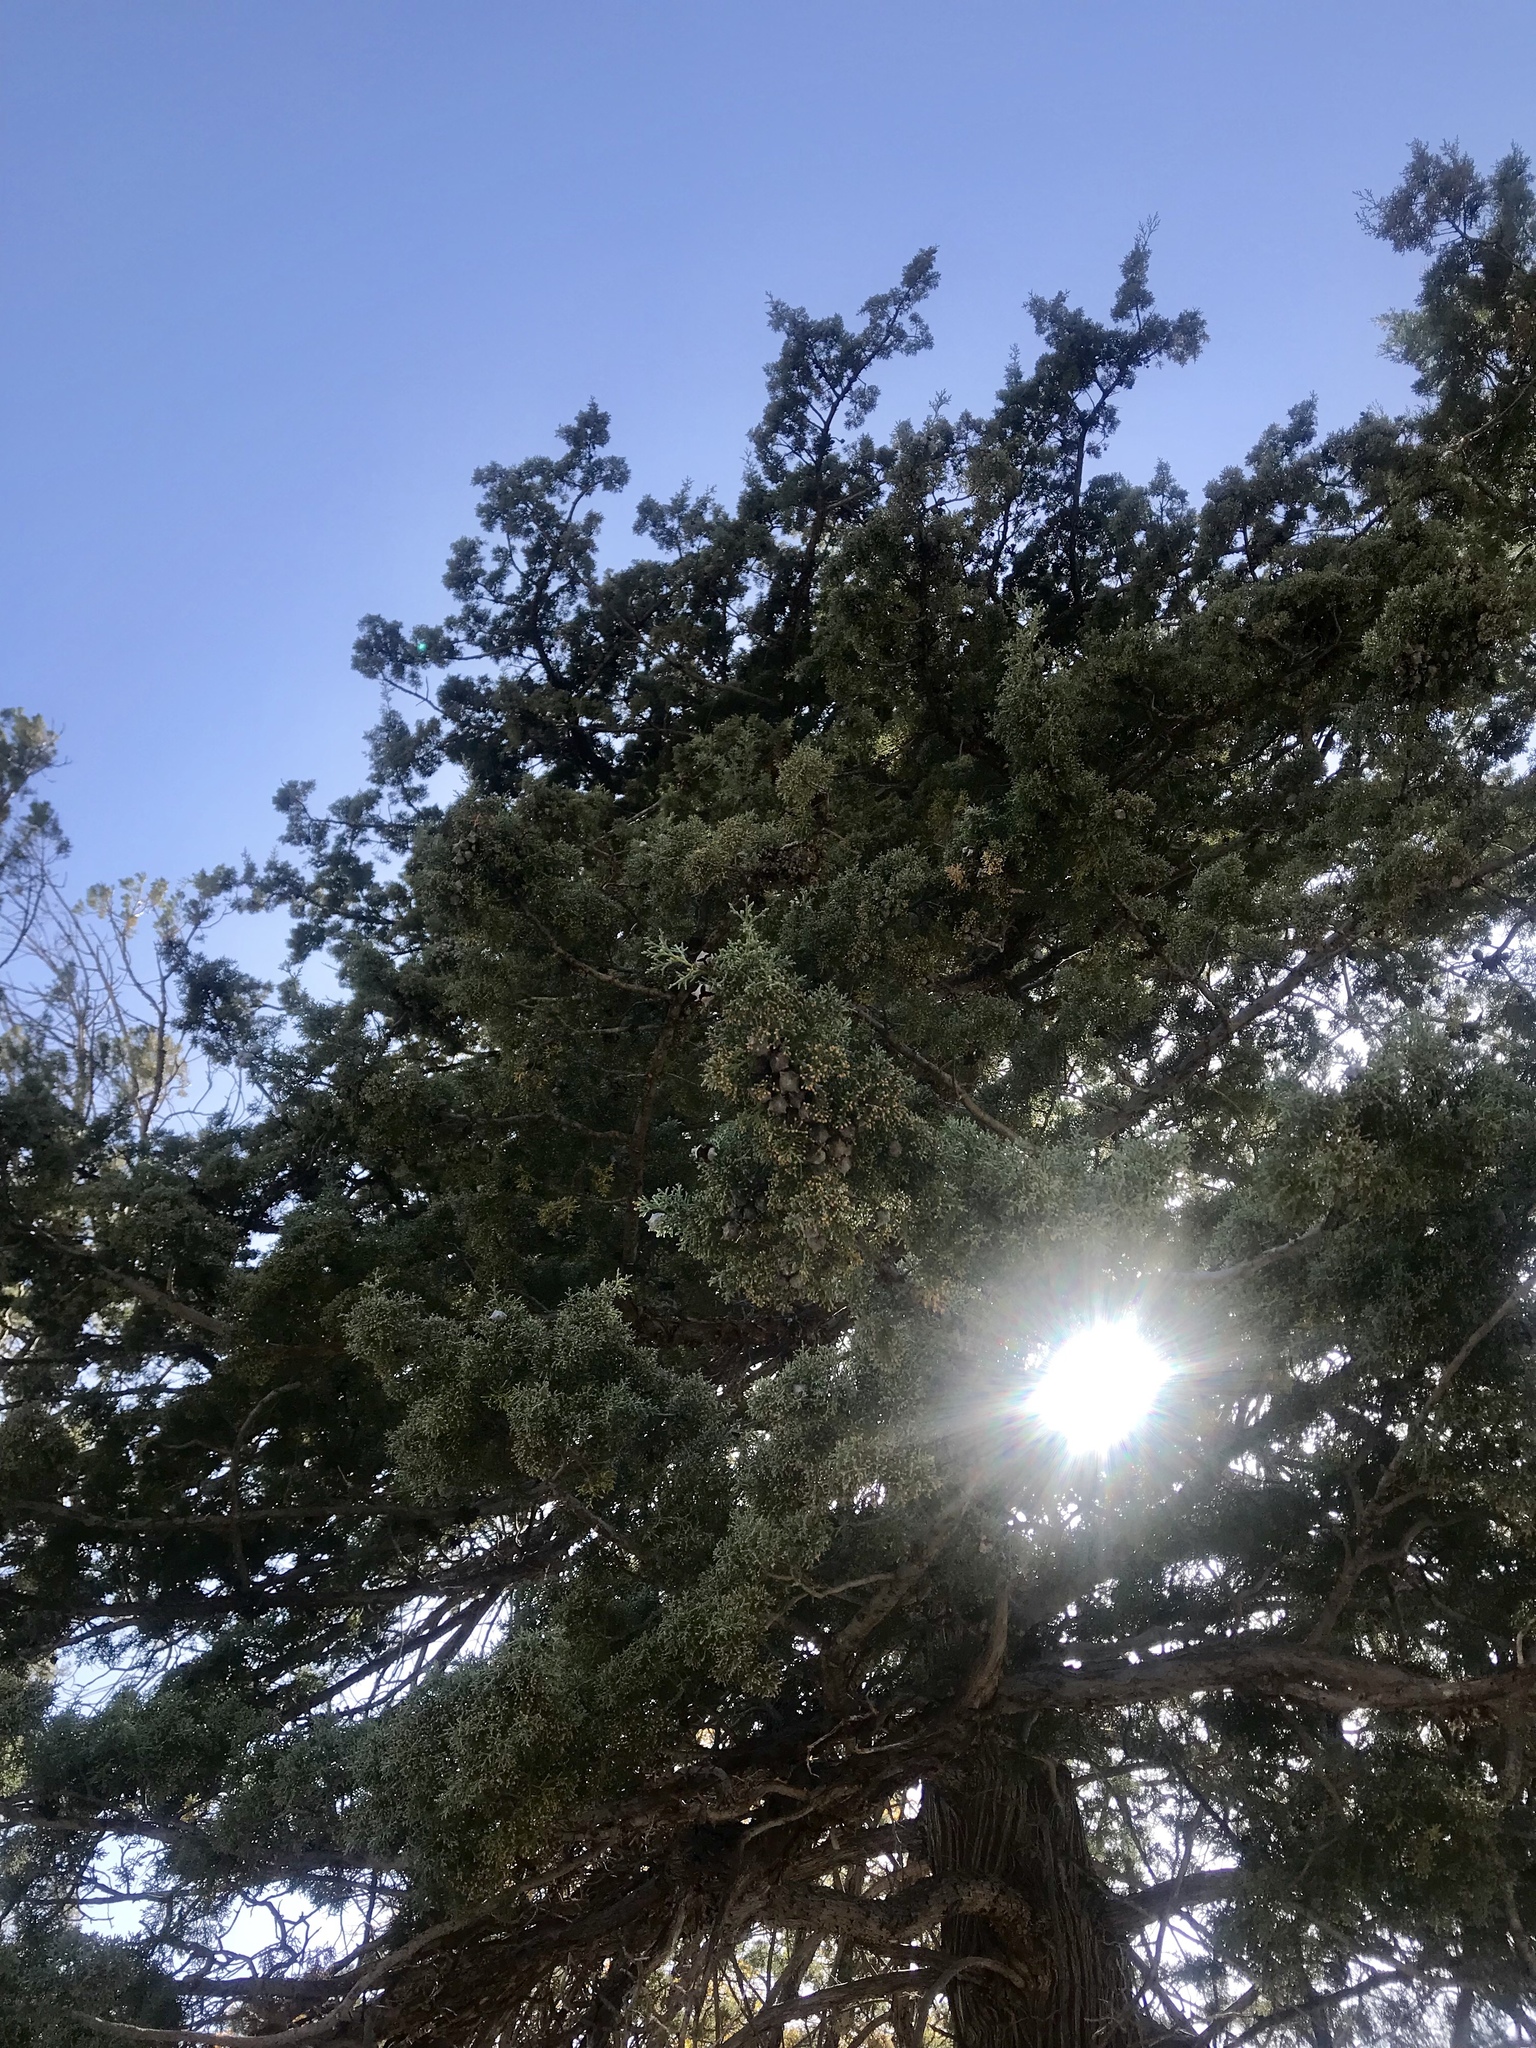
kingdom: Plantae
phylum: Tracheophyta
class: Pinopsida
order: Pinales
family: Cupressaceae
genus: Cupressus
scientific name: Cupressus arizonica
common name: Arizona cypress
